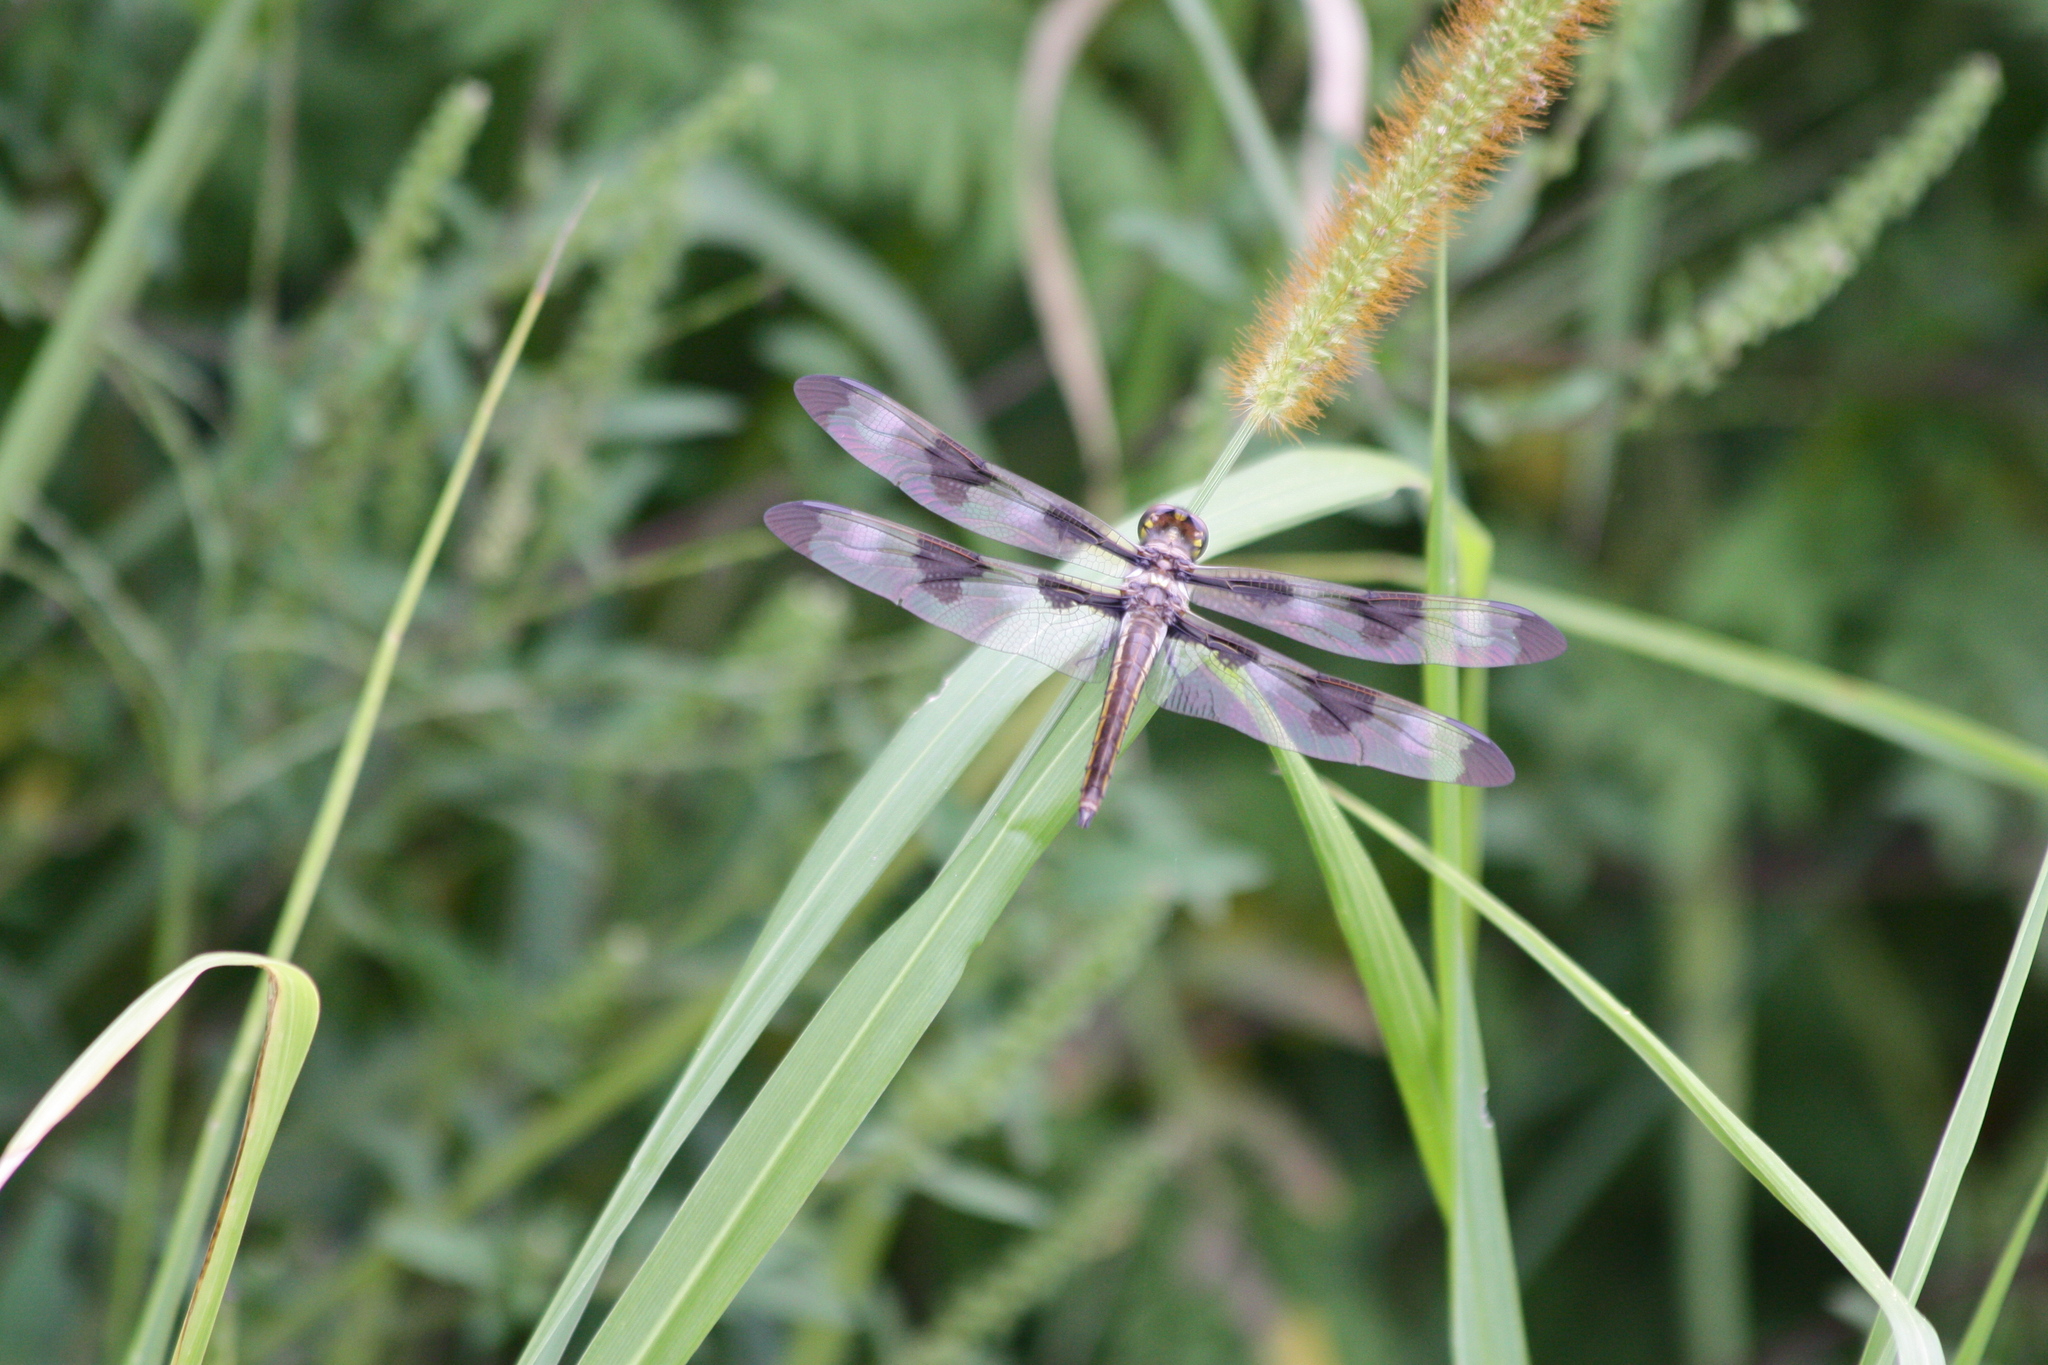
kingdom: Animalia
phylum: Arthropoda
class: Insecta
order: Odonata
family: Libellulidae
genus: Libellula
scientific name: Libellula pulchella
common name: Twelve-spotted skimmer
